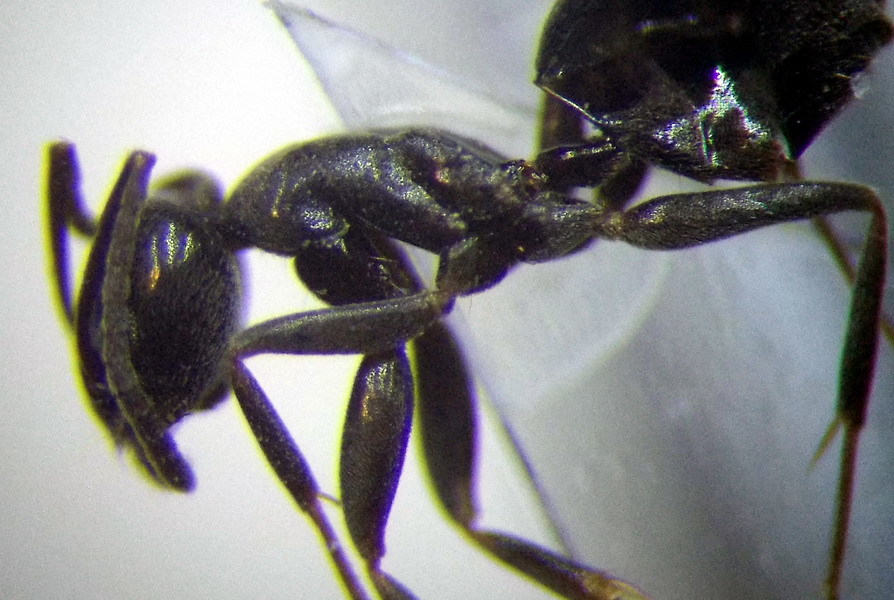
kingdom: Animalia
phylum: Arthropoda
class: Insecta
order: Hymenoptera
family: Formicidae
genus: Tapinoma
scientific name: Tapinoma erraticum
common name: Erratic ant
